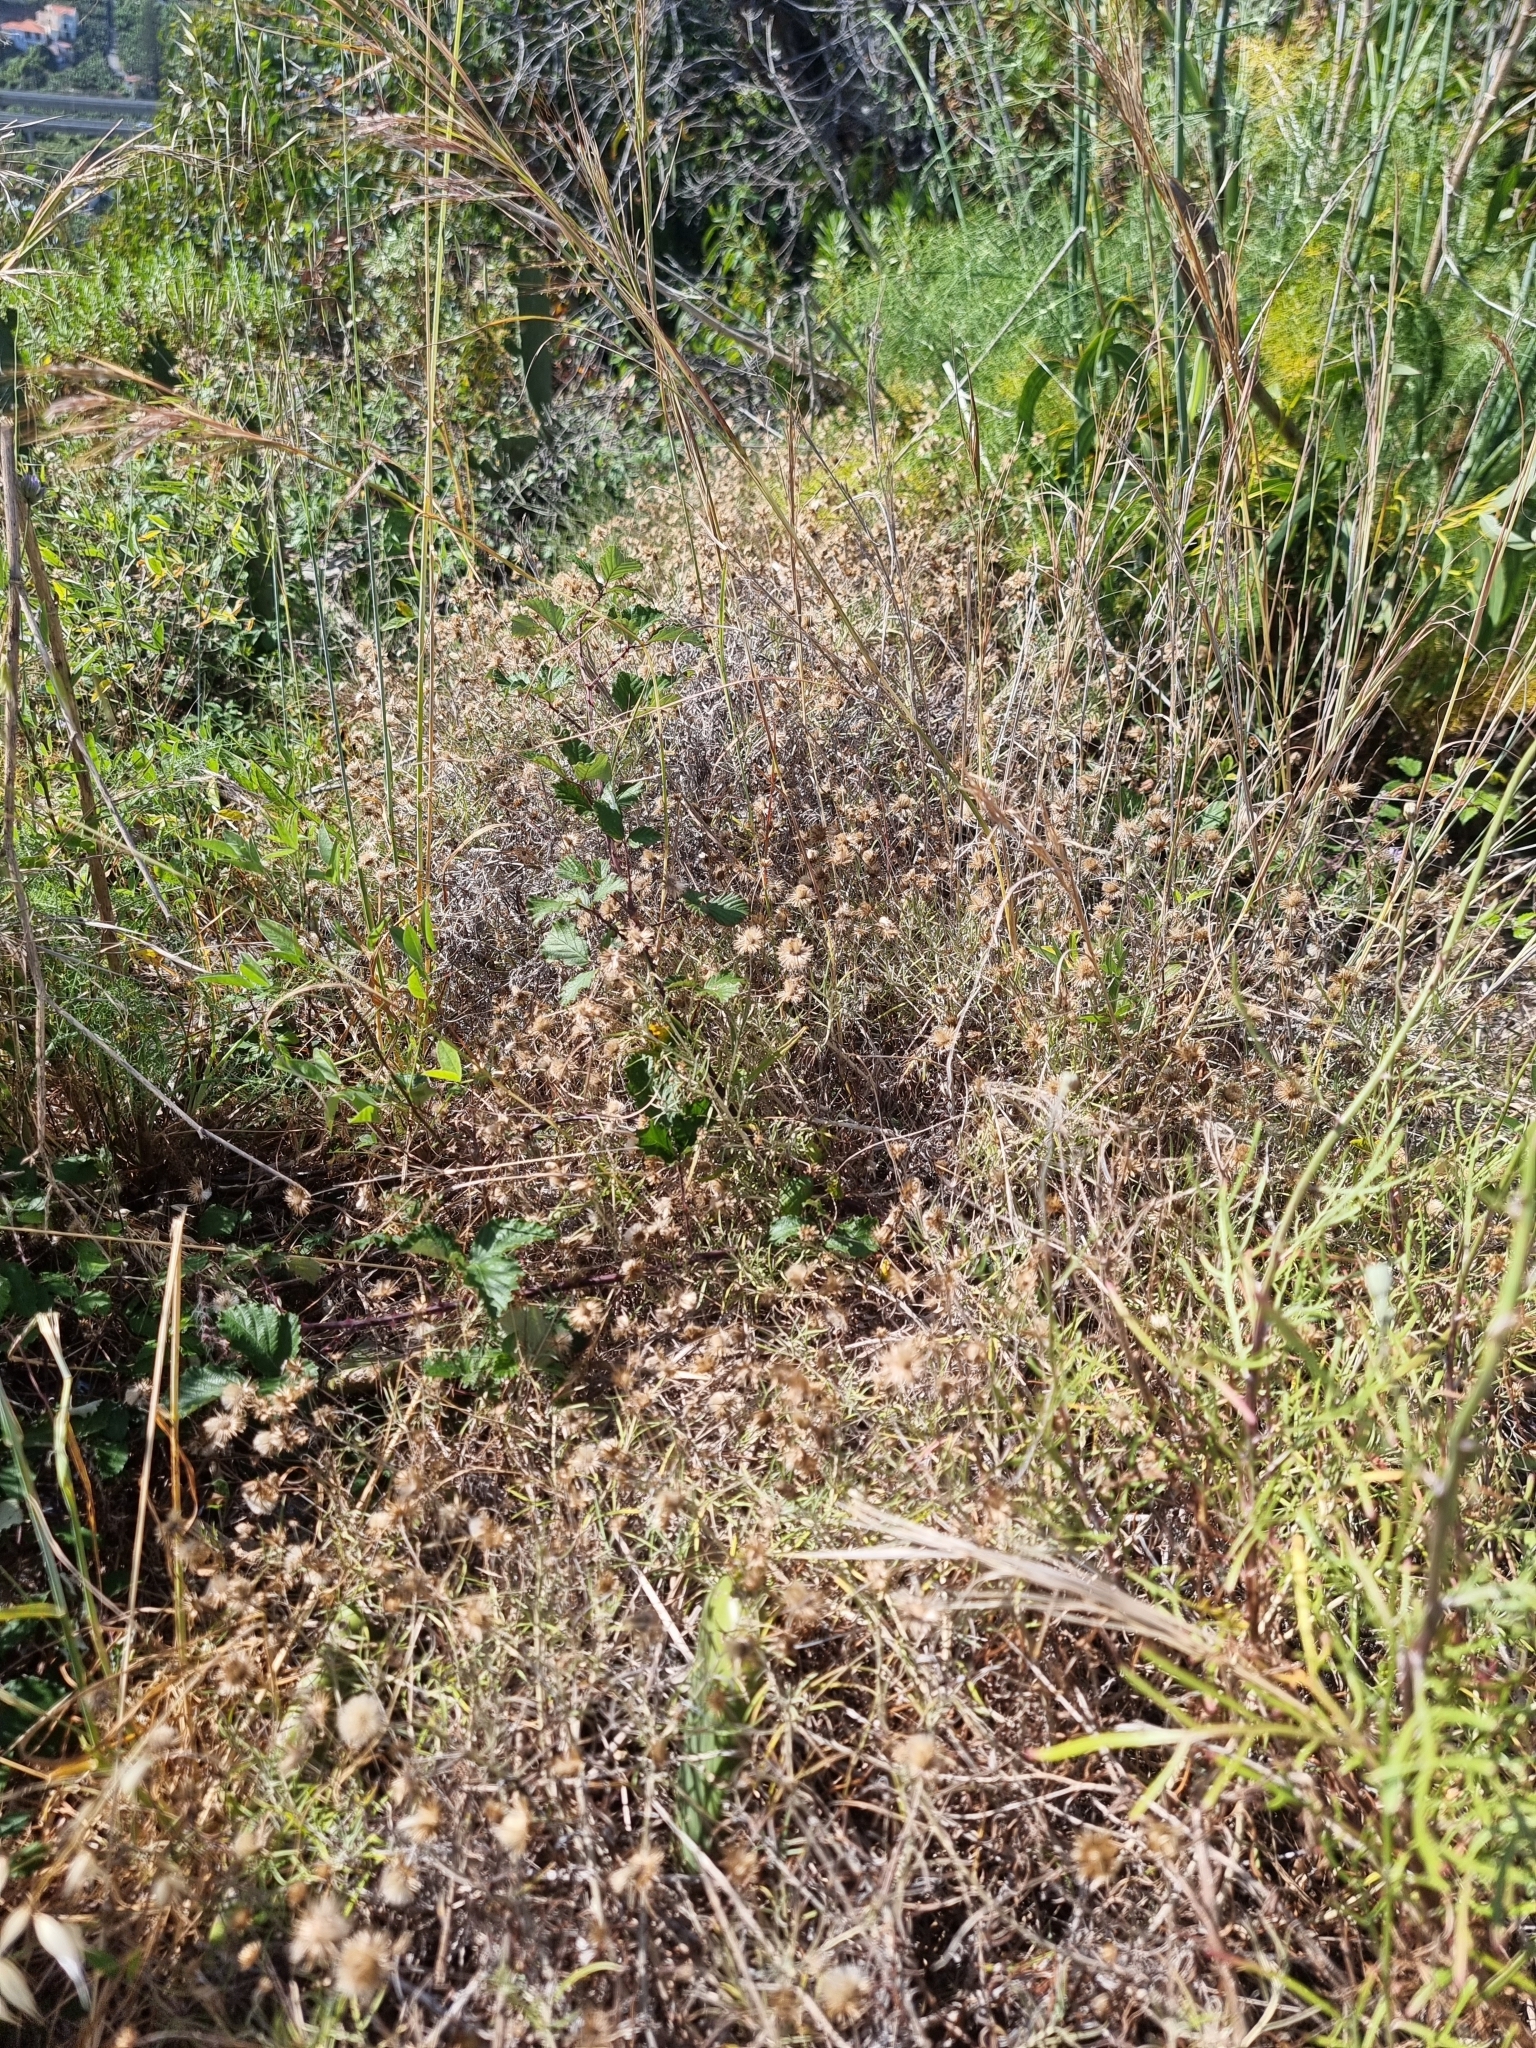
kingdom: Plantae
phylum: Tracheophyta
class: Magnoliopsida
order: Asterales
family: Asteraceae
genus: Phagnalon
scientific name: Phagnalon saxatile
